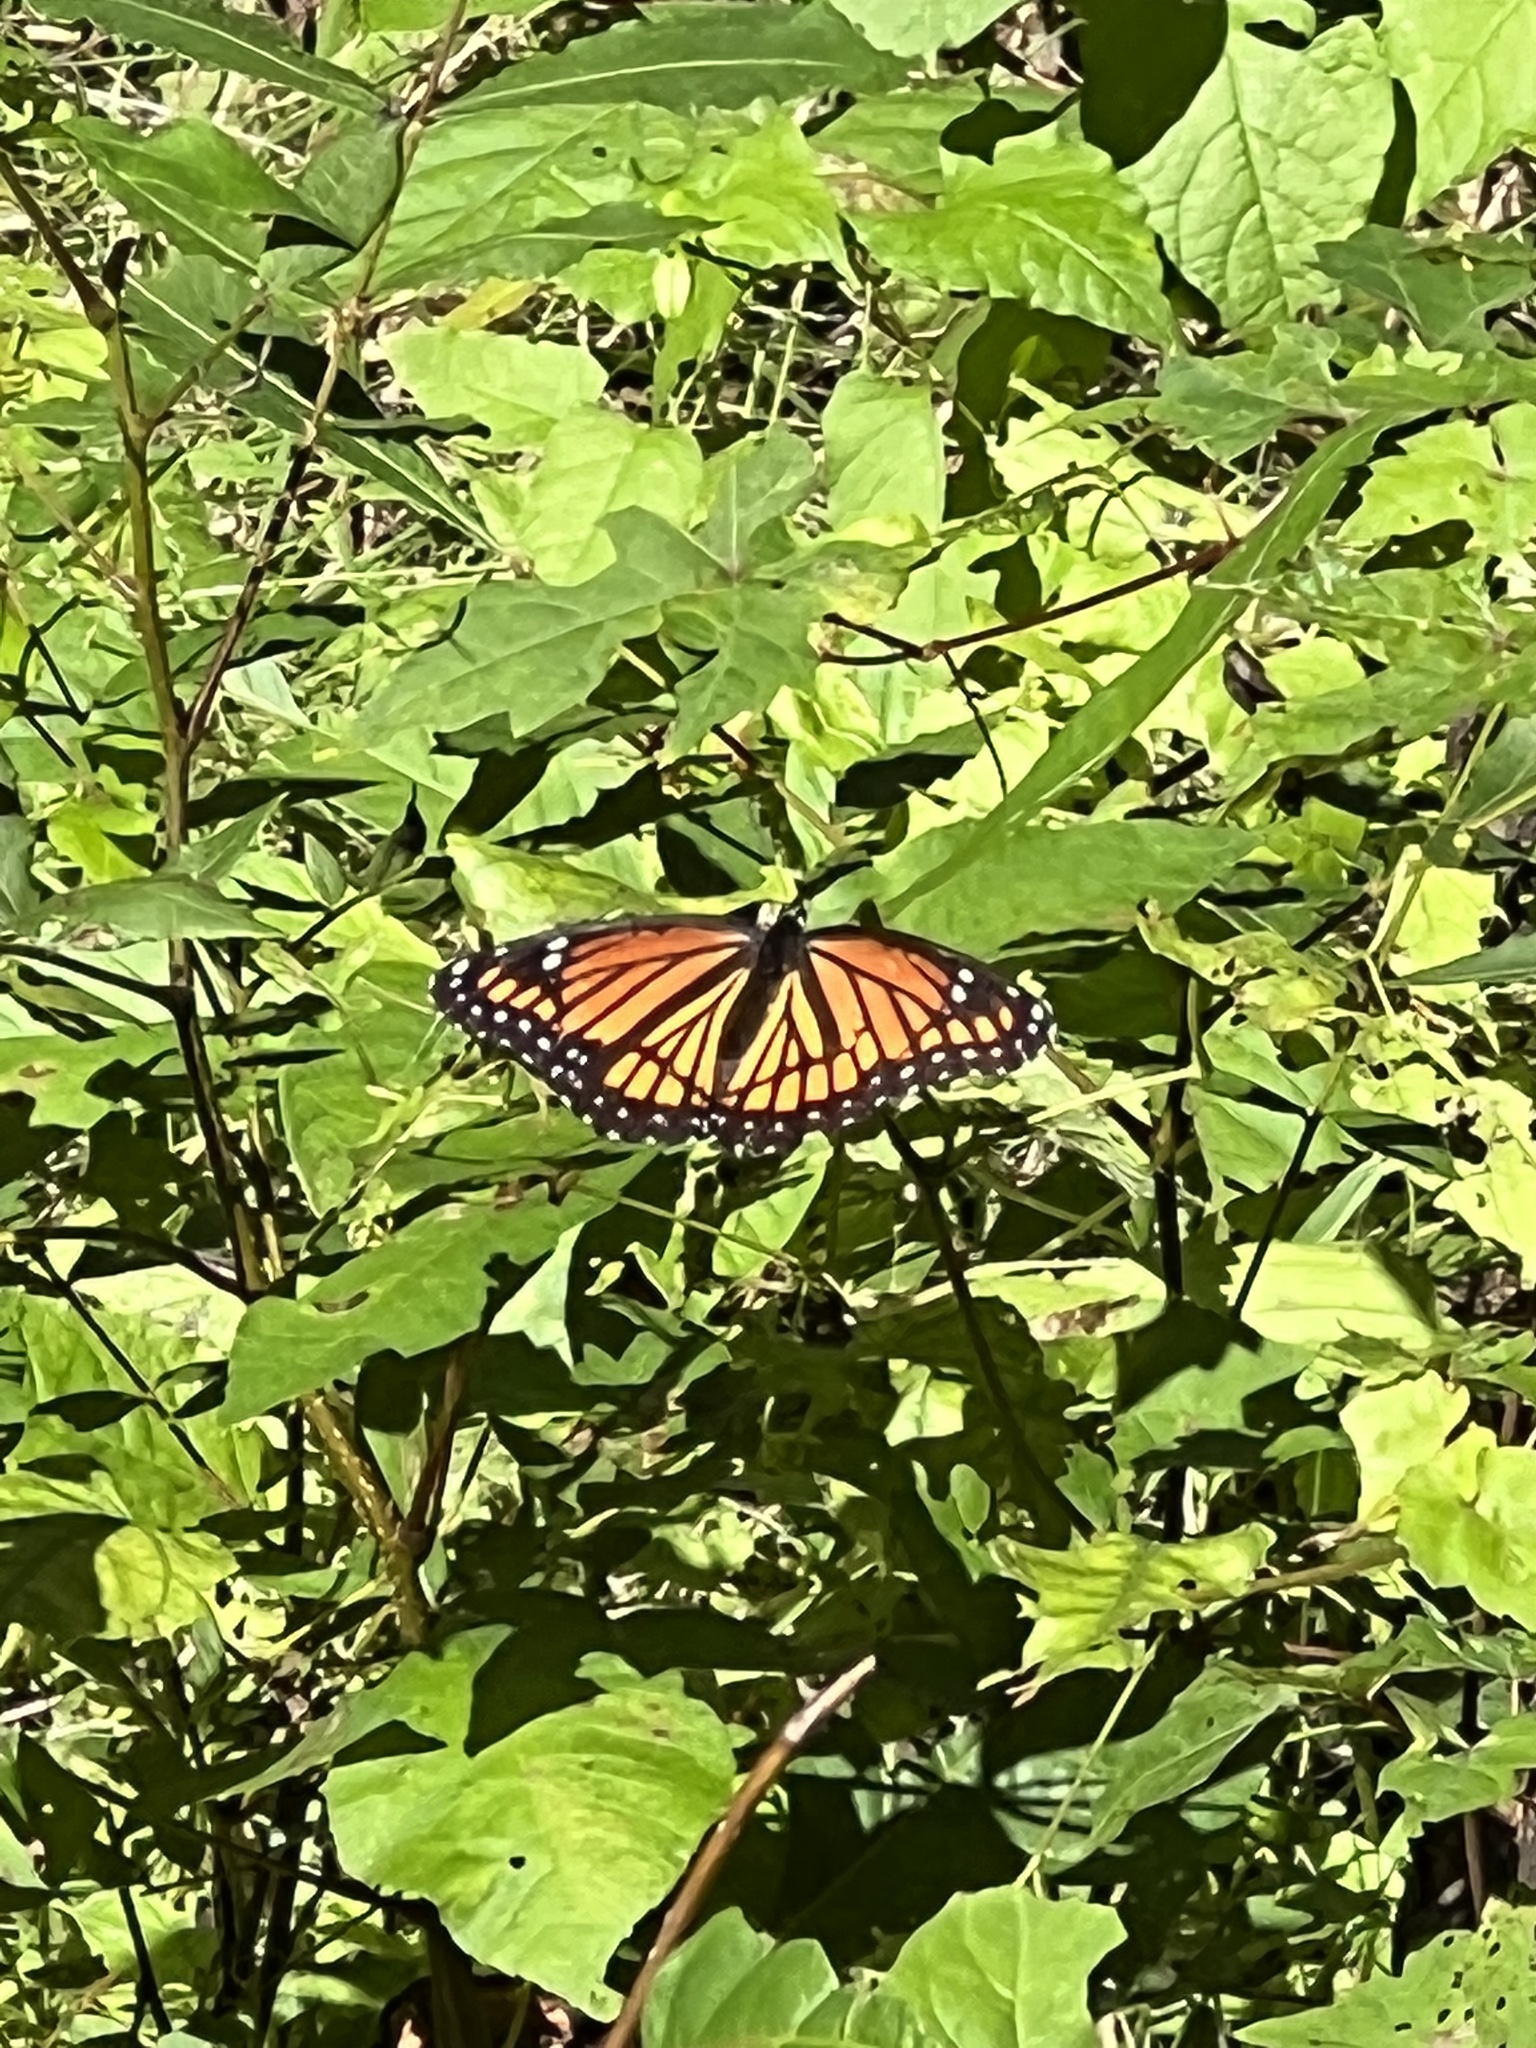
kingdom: Animalia
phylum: Arthropoda
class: Insecta
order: Lepidoptera
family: Nymphalidae
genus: Limenitis
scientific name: Limenitis archippus
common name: Viceroy
